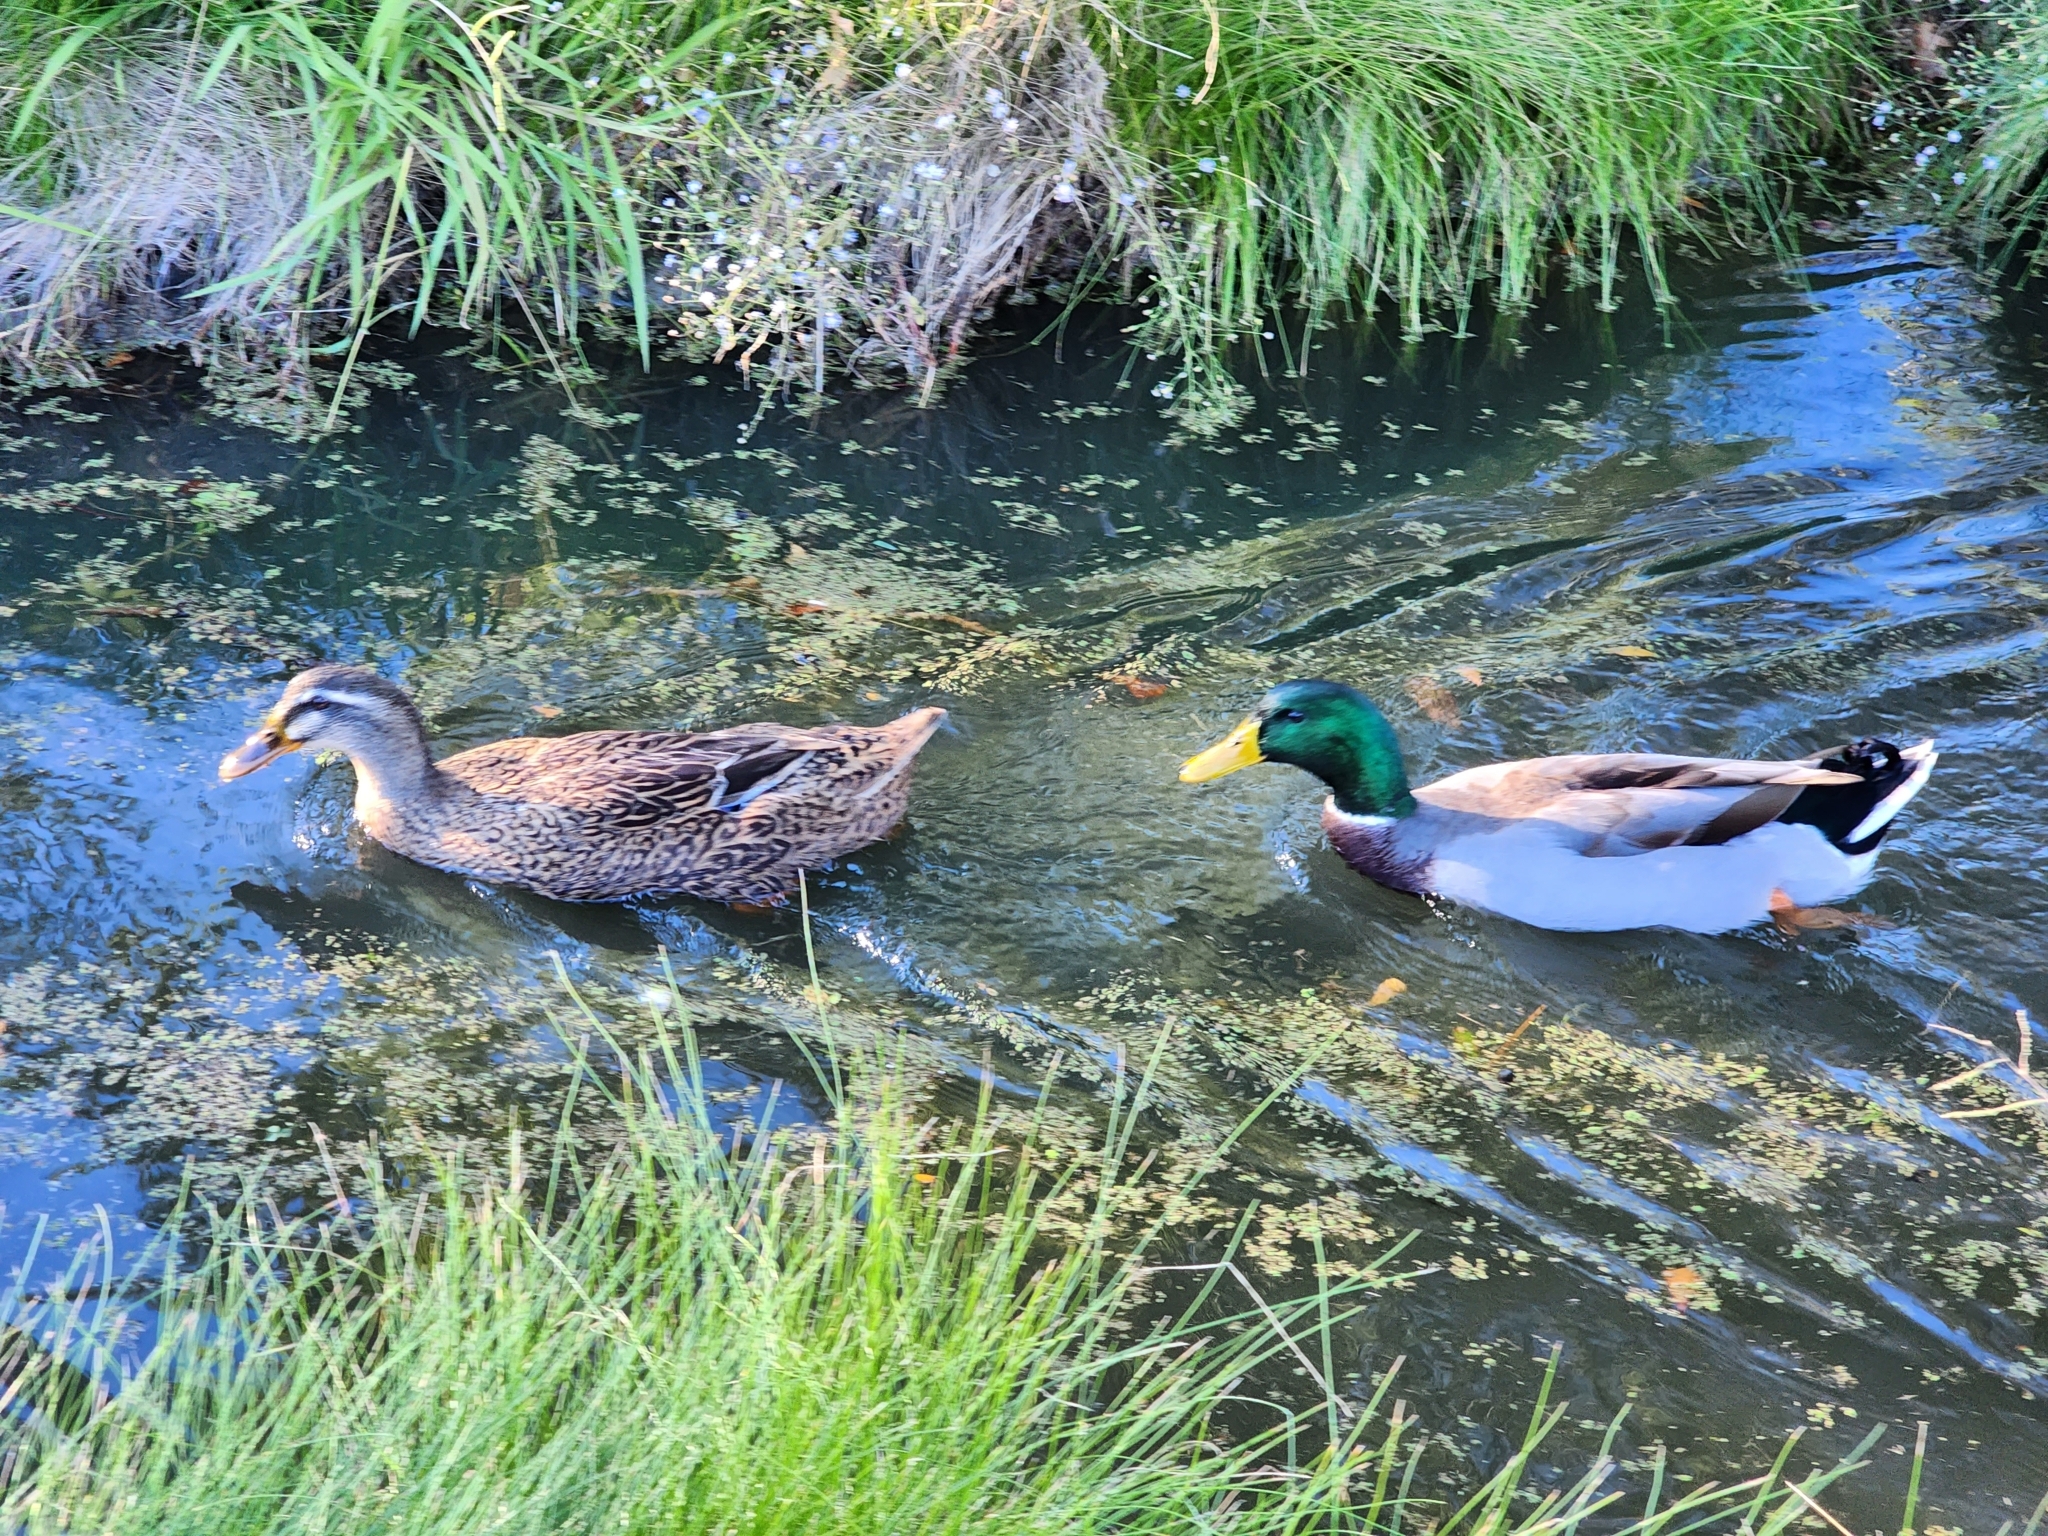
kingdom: Animalia
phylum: Chordata
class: Aves
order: Anseriformes
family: Anatidae
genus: Anas
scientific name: Anas platyrhynchos
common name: Mallard
